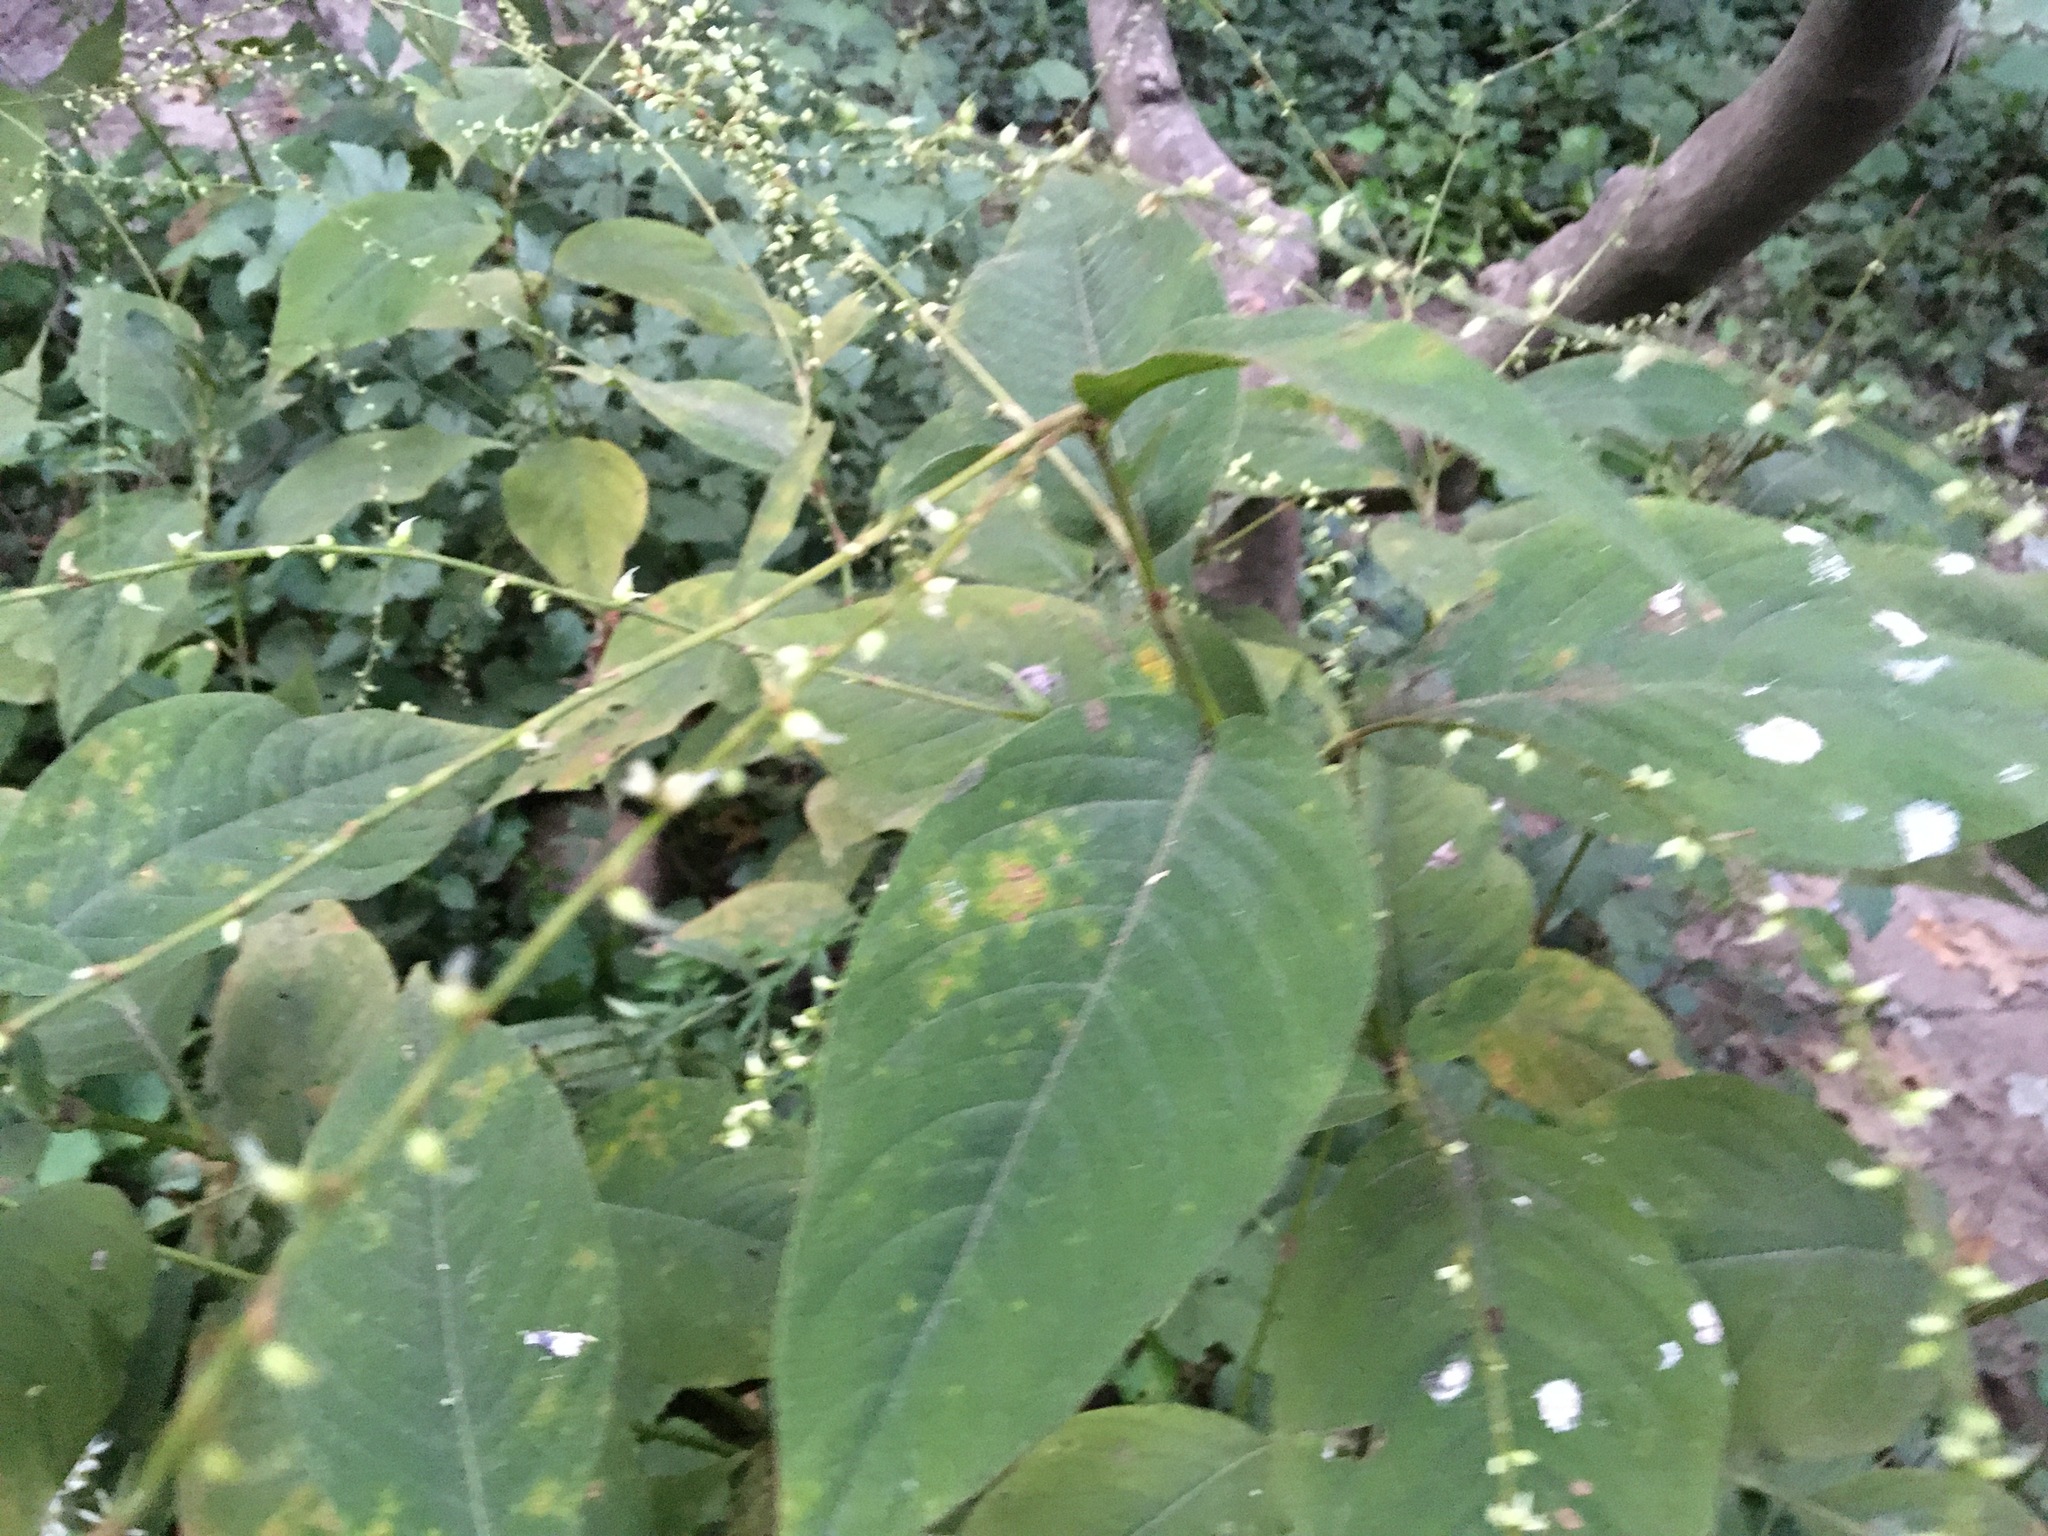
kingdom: Plantae
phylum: Tracheophyta
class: Magnoliopsida
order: Caryophyllales
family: Polygonaceae
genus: Persicaria
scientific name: Persicaria virginiana
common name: Jumpseed
